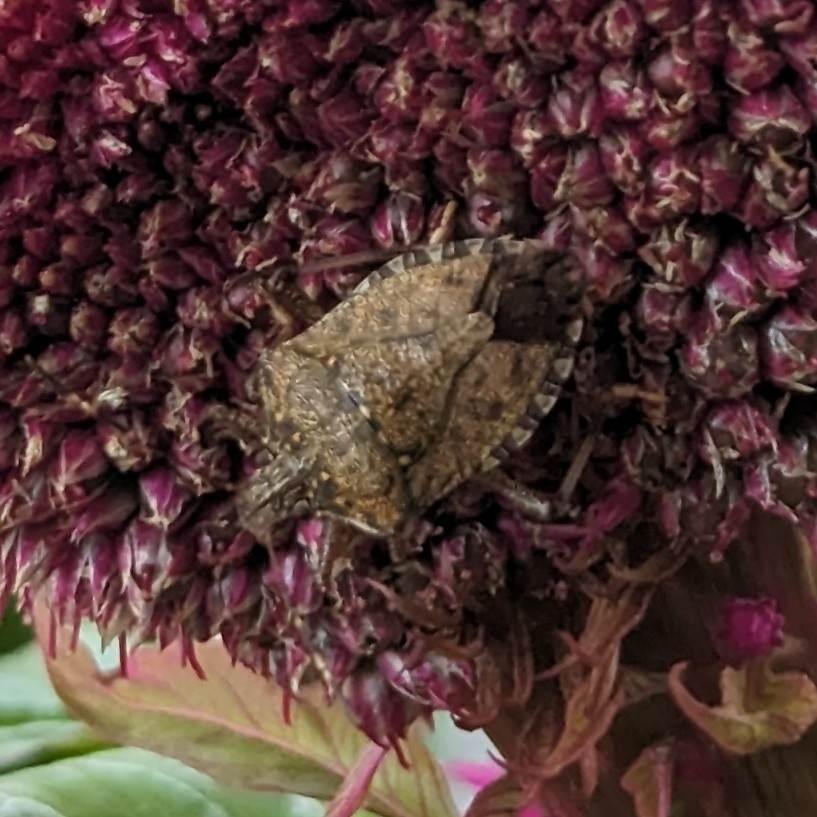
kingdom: Animalia
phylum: Arthropoda
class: Insecta
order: Hemiptera
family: Pentatomidae
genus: Halyomorpha
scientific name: Halyomorpha halys
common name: Brown marmorated stink bug
